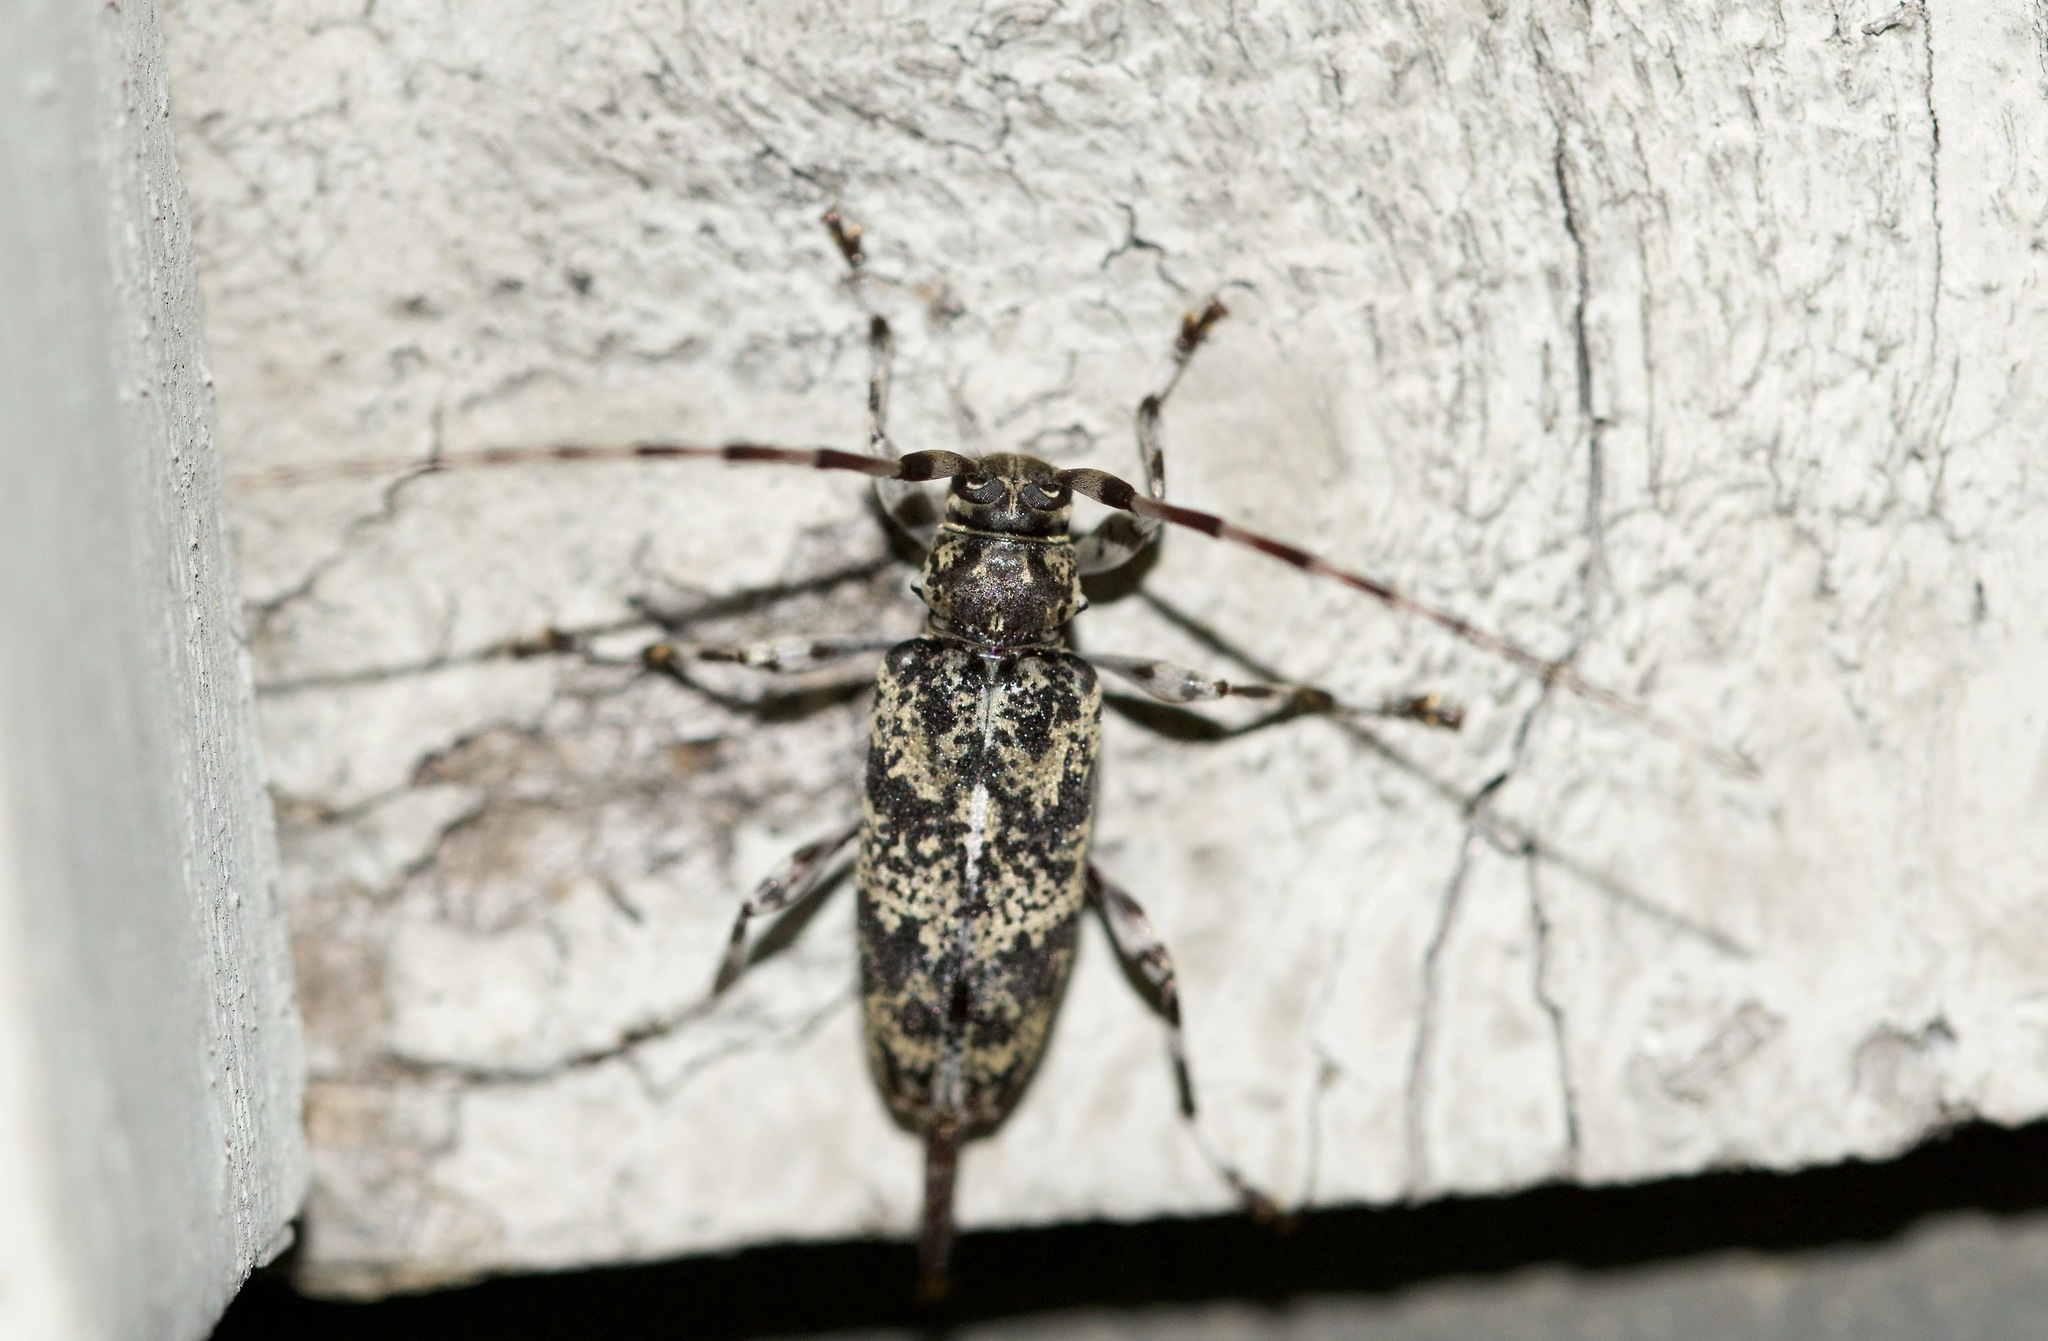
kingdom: Animalia
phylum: Arthropoda
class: Insecta
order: Coleoptera
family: Cerambycidae
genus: Graphisurus
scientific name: Graphisurus fasciatus
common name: Banded graphisurus
